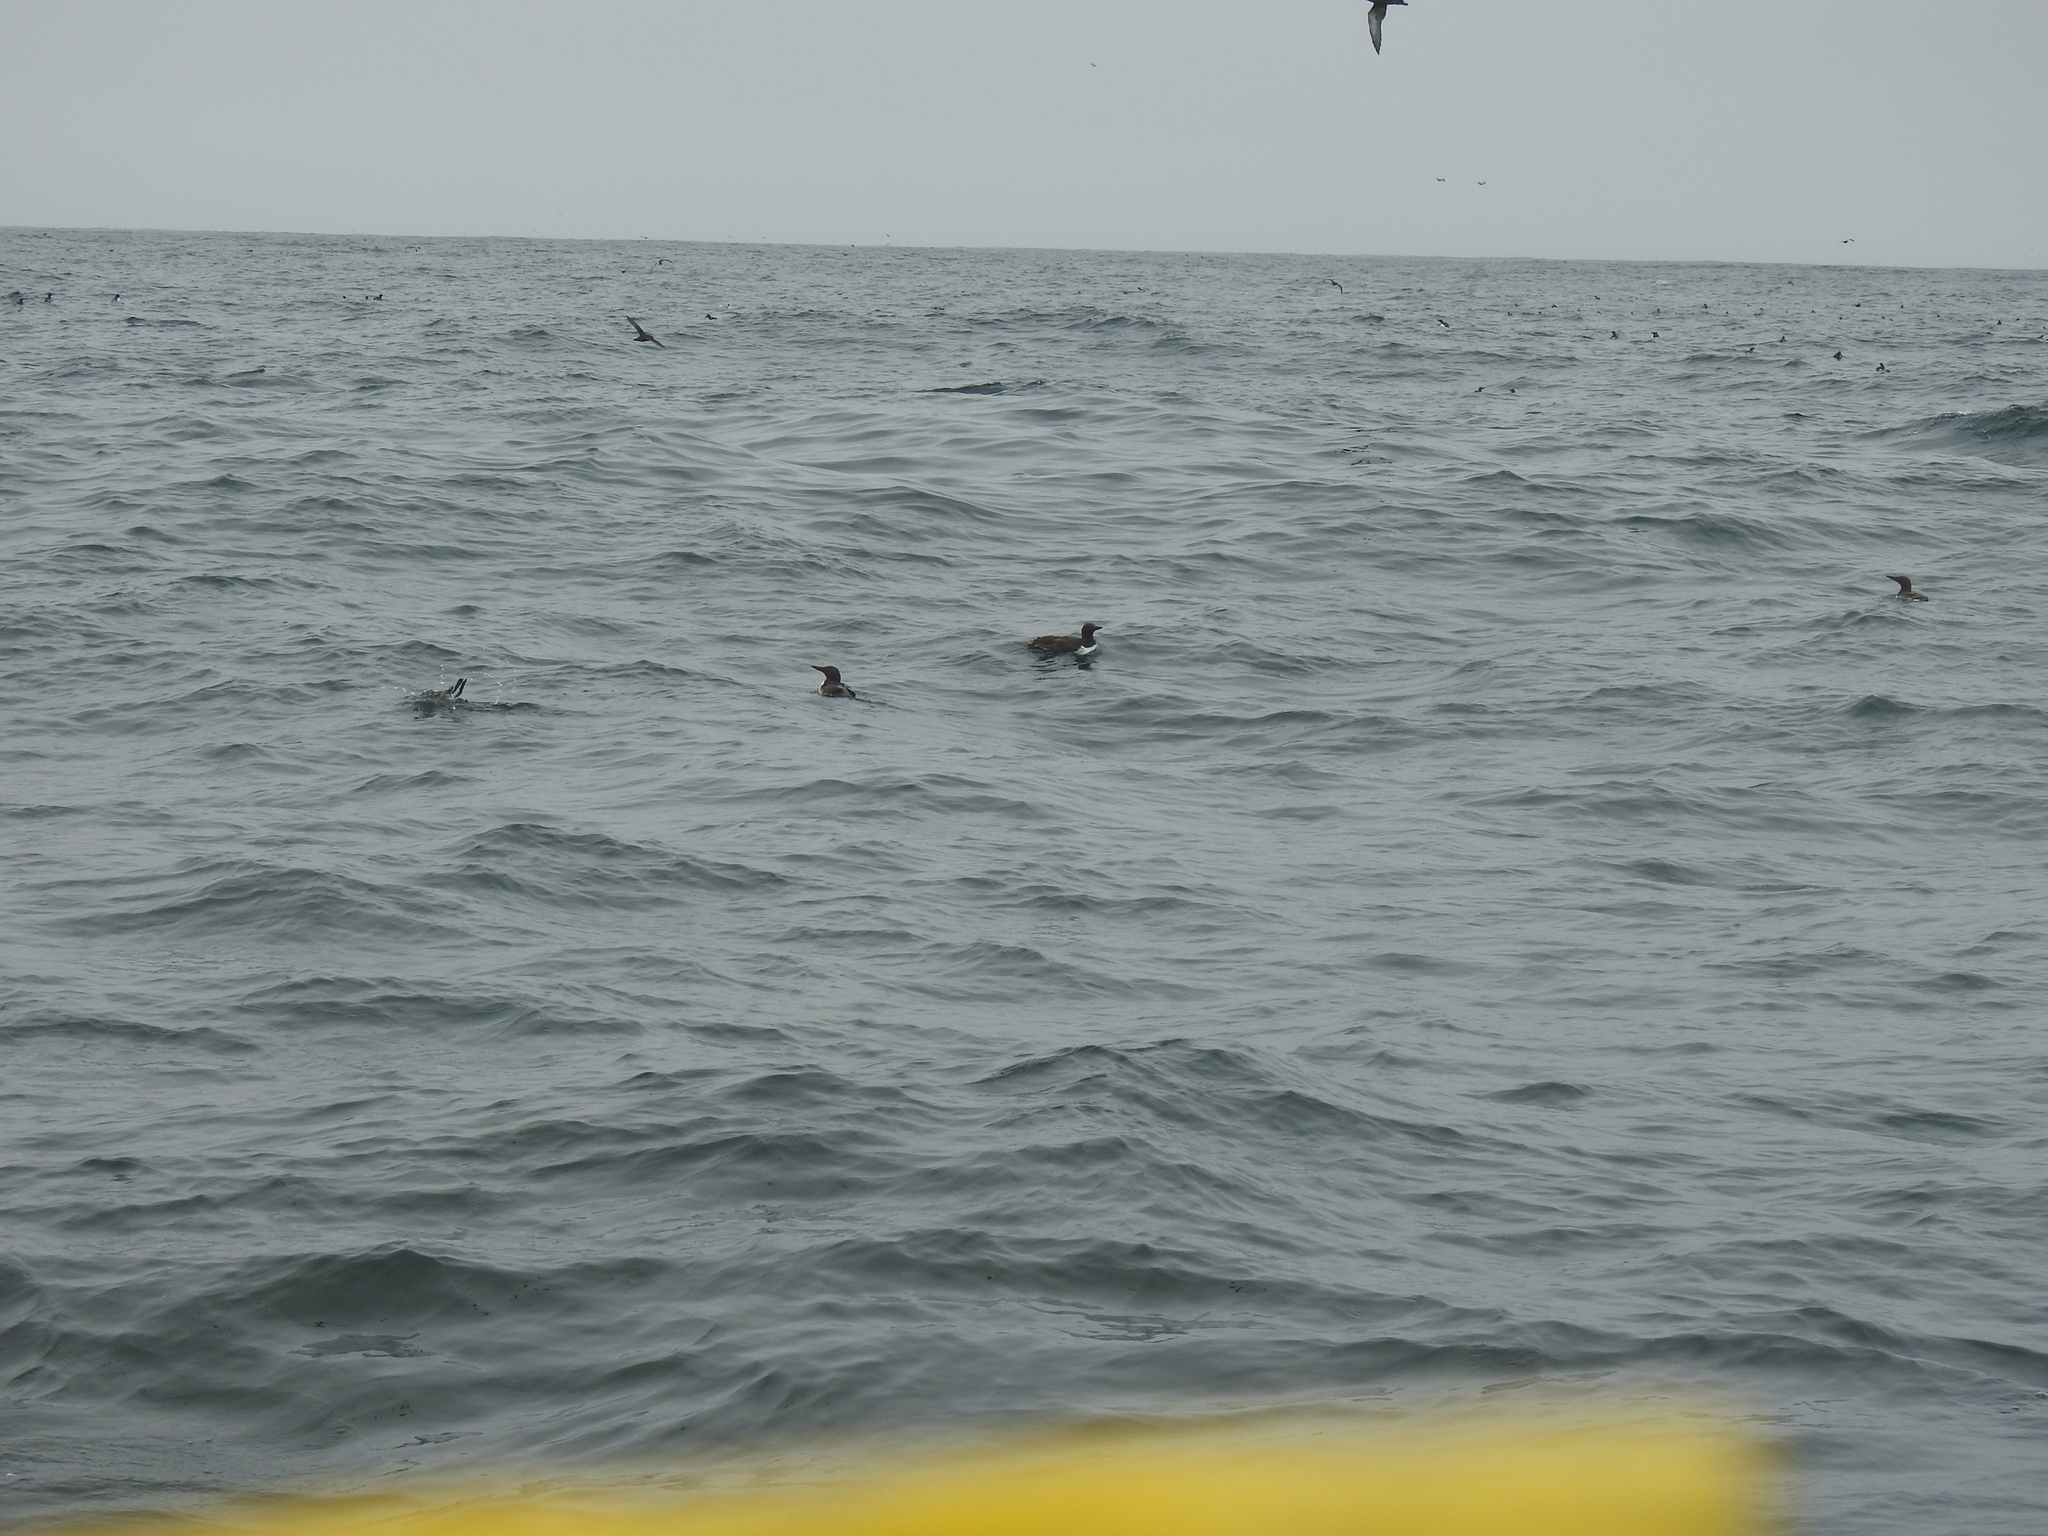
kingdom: Animalia
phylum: Chordata
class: Aves
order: Charadriiformes
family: Alcidae
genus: Uria
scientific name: Uria aalge
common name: Common murre
